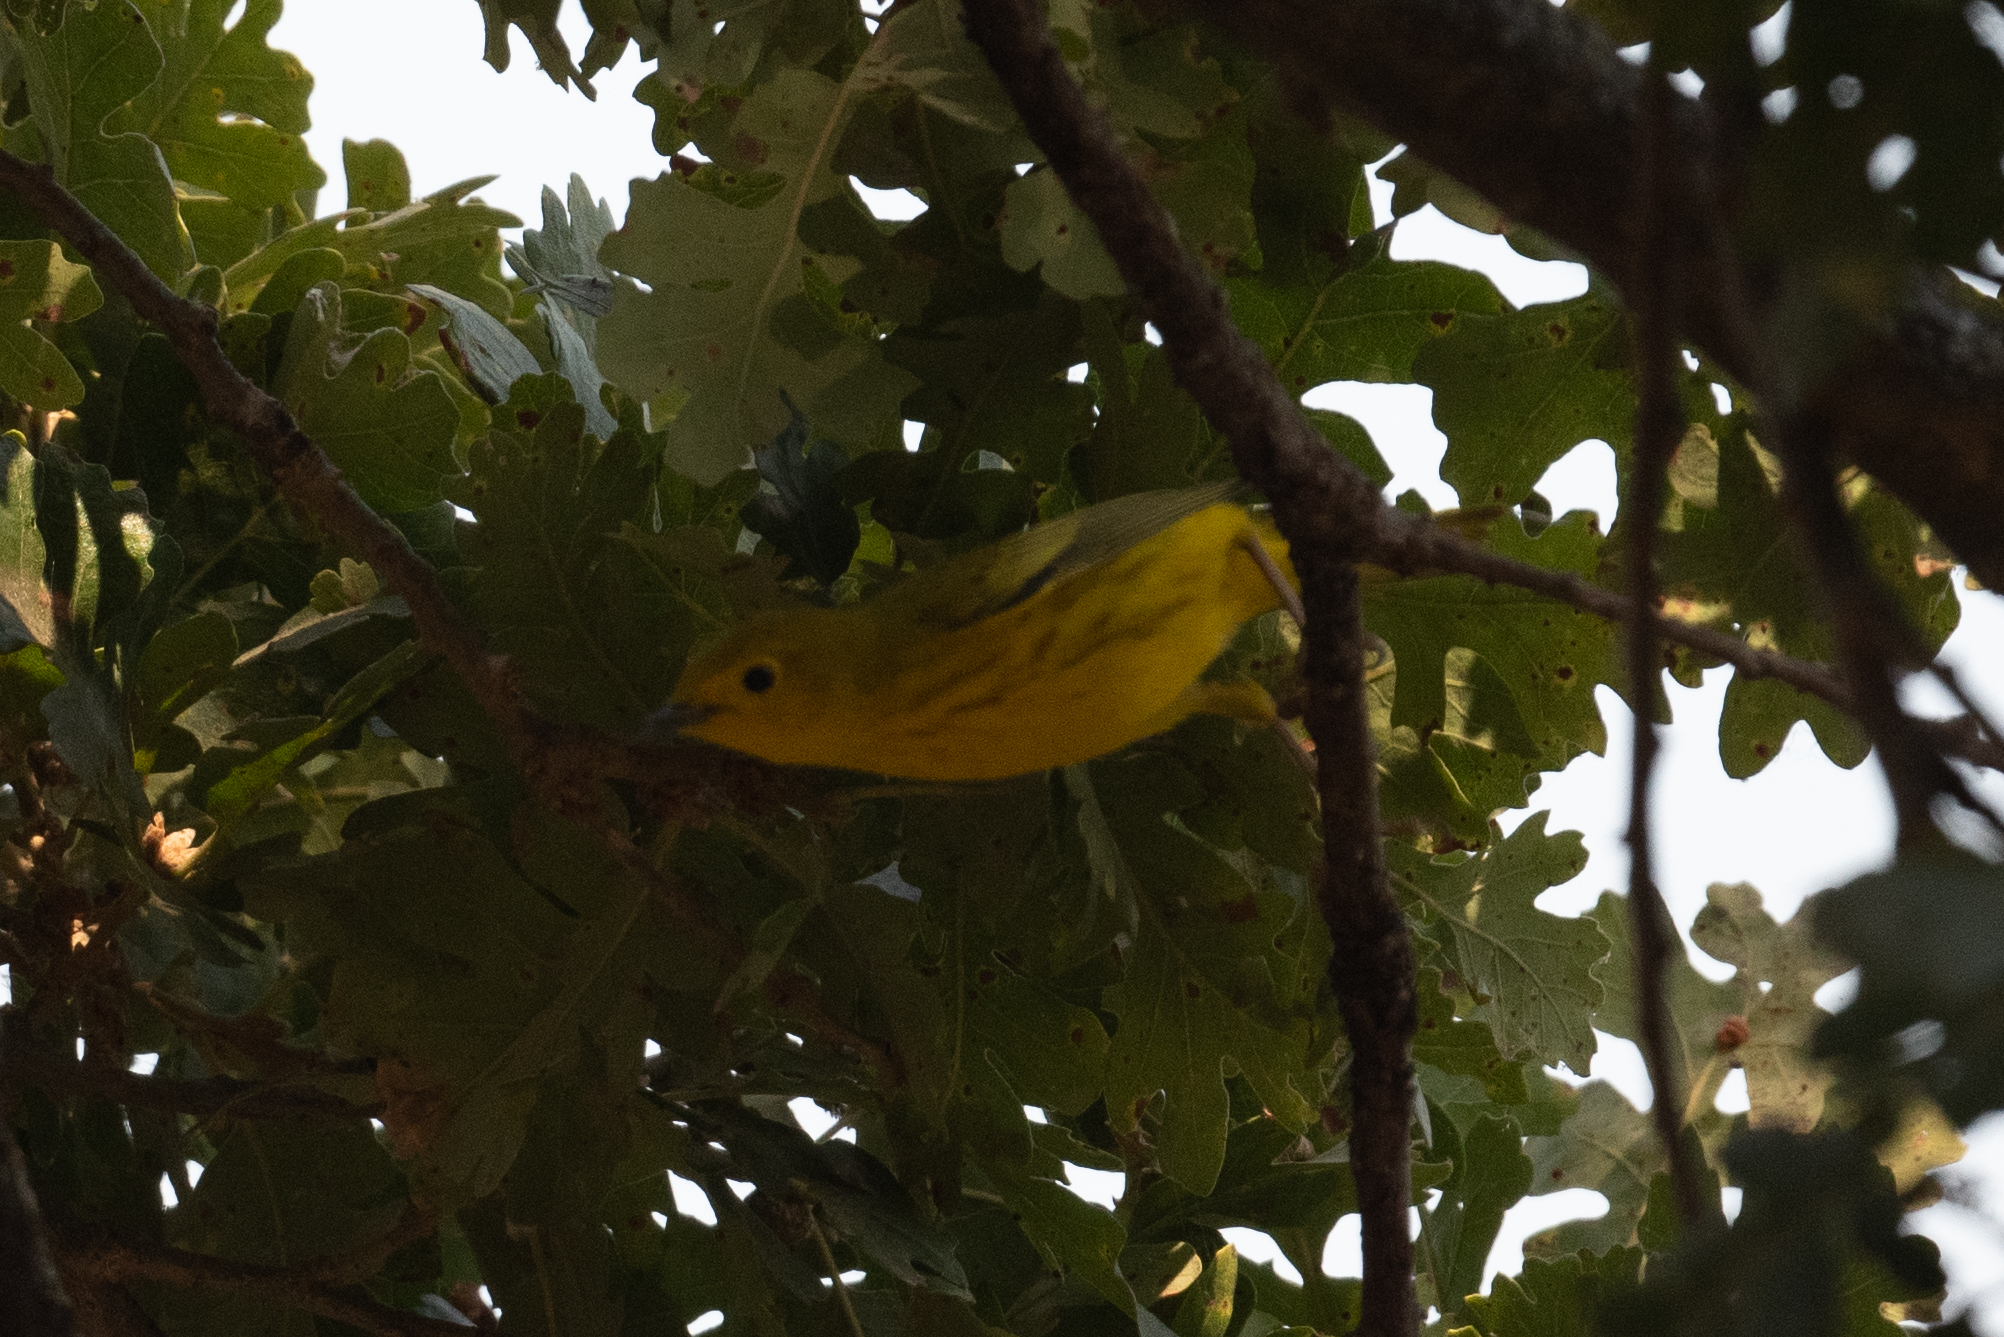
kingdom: Animalia
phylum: Chordata
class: Aves
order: Passeriformes
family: Parulidae
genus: Setophaga
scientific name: Setophaga petechia
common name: Yellow warbler
